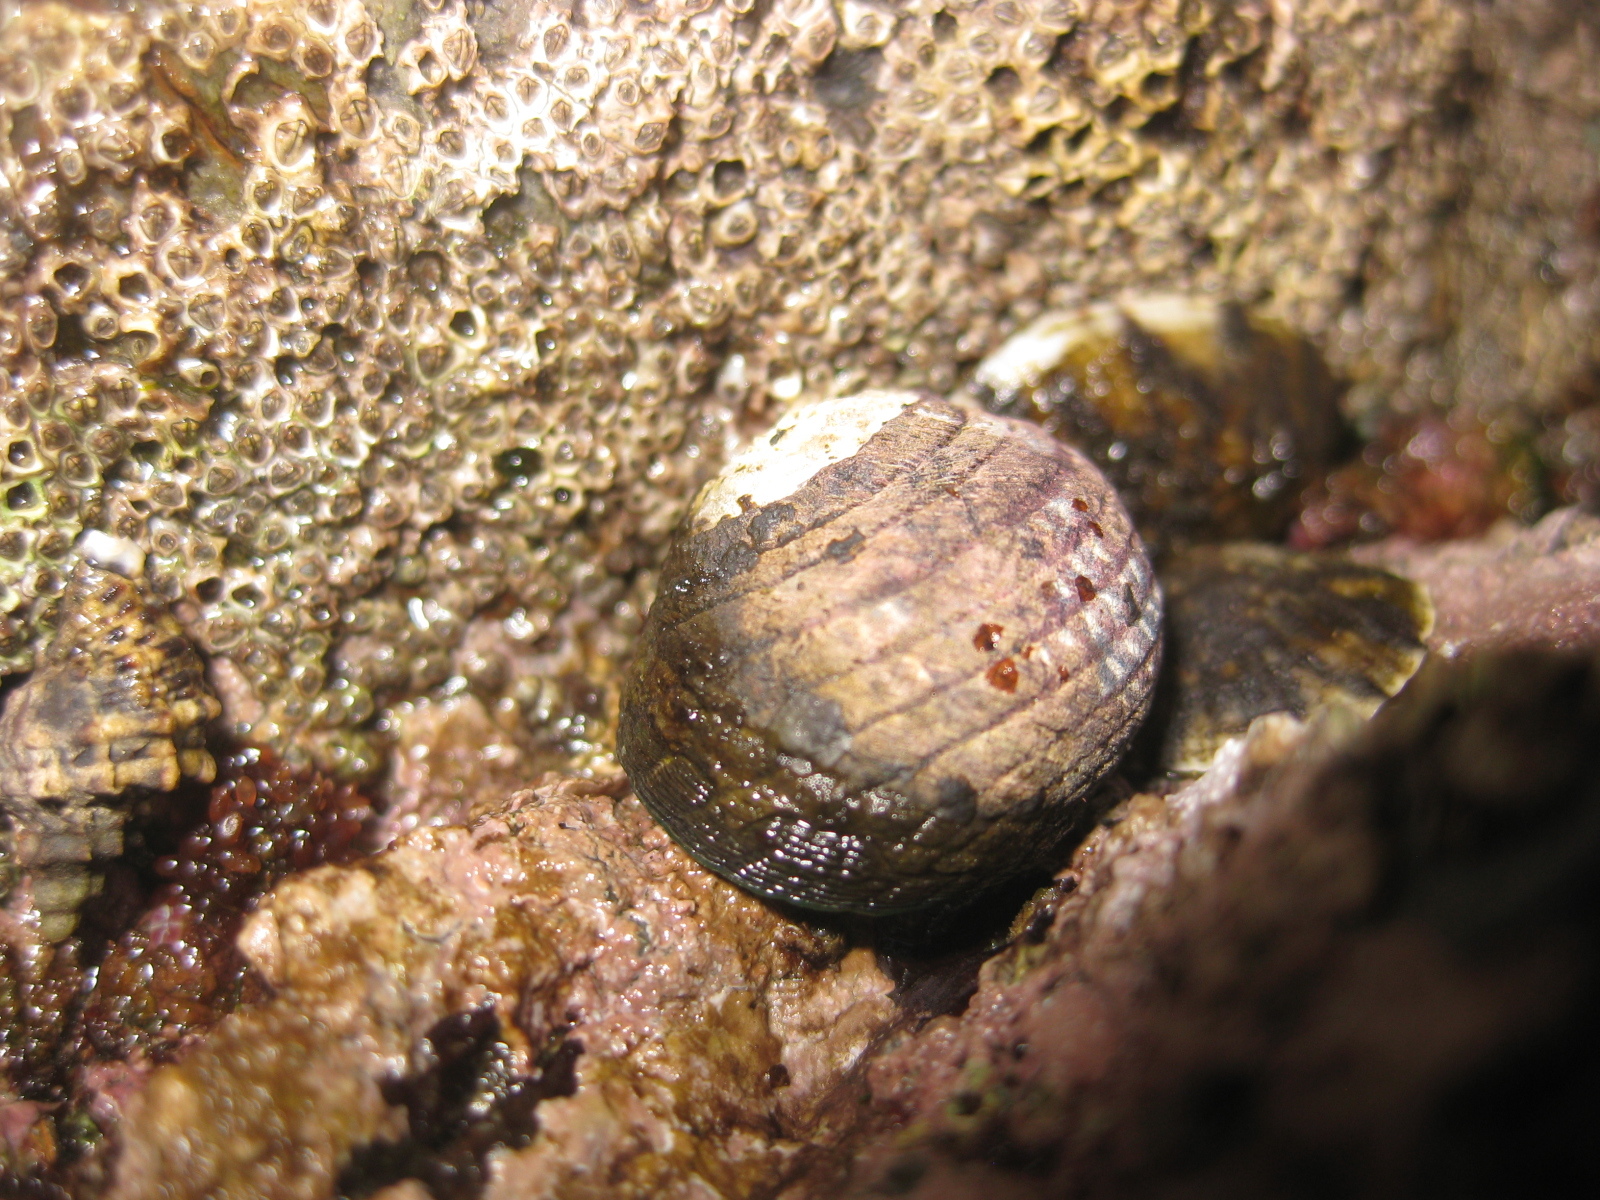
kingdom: Animalia
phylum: Mollusca
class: Gastropoda
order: Trochida
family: Trochidae
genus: Diloma
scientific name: Diloma aethiops
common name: Scorched monodont
